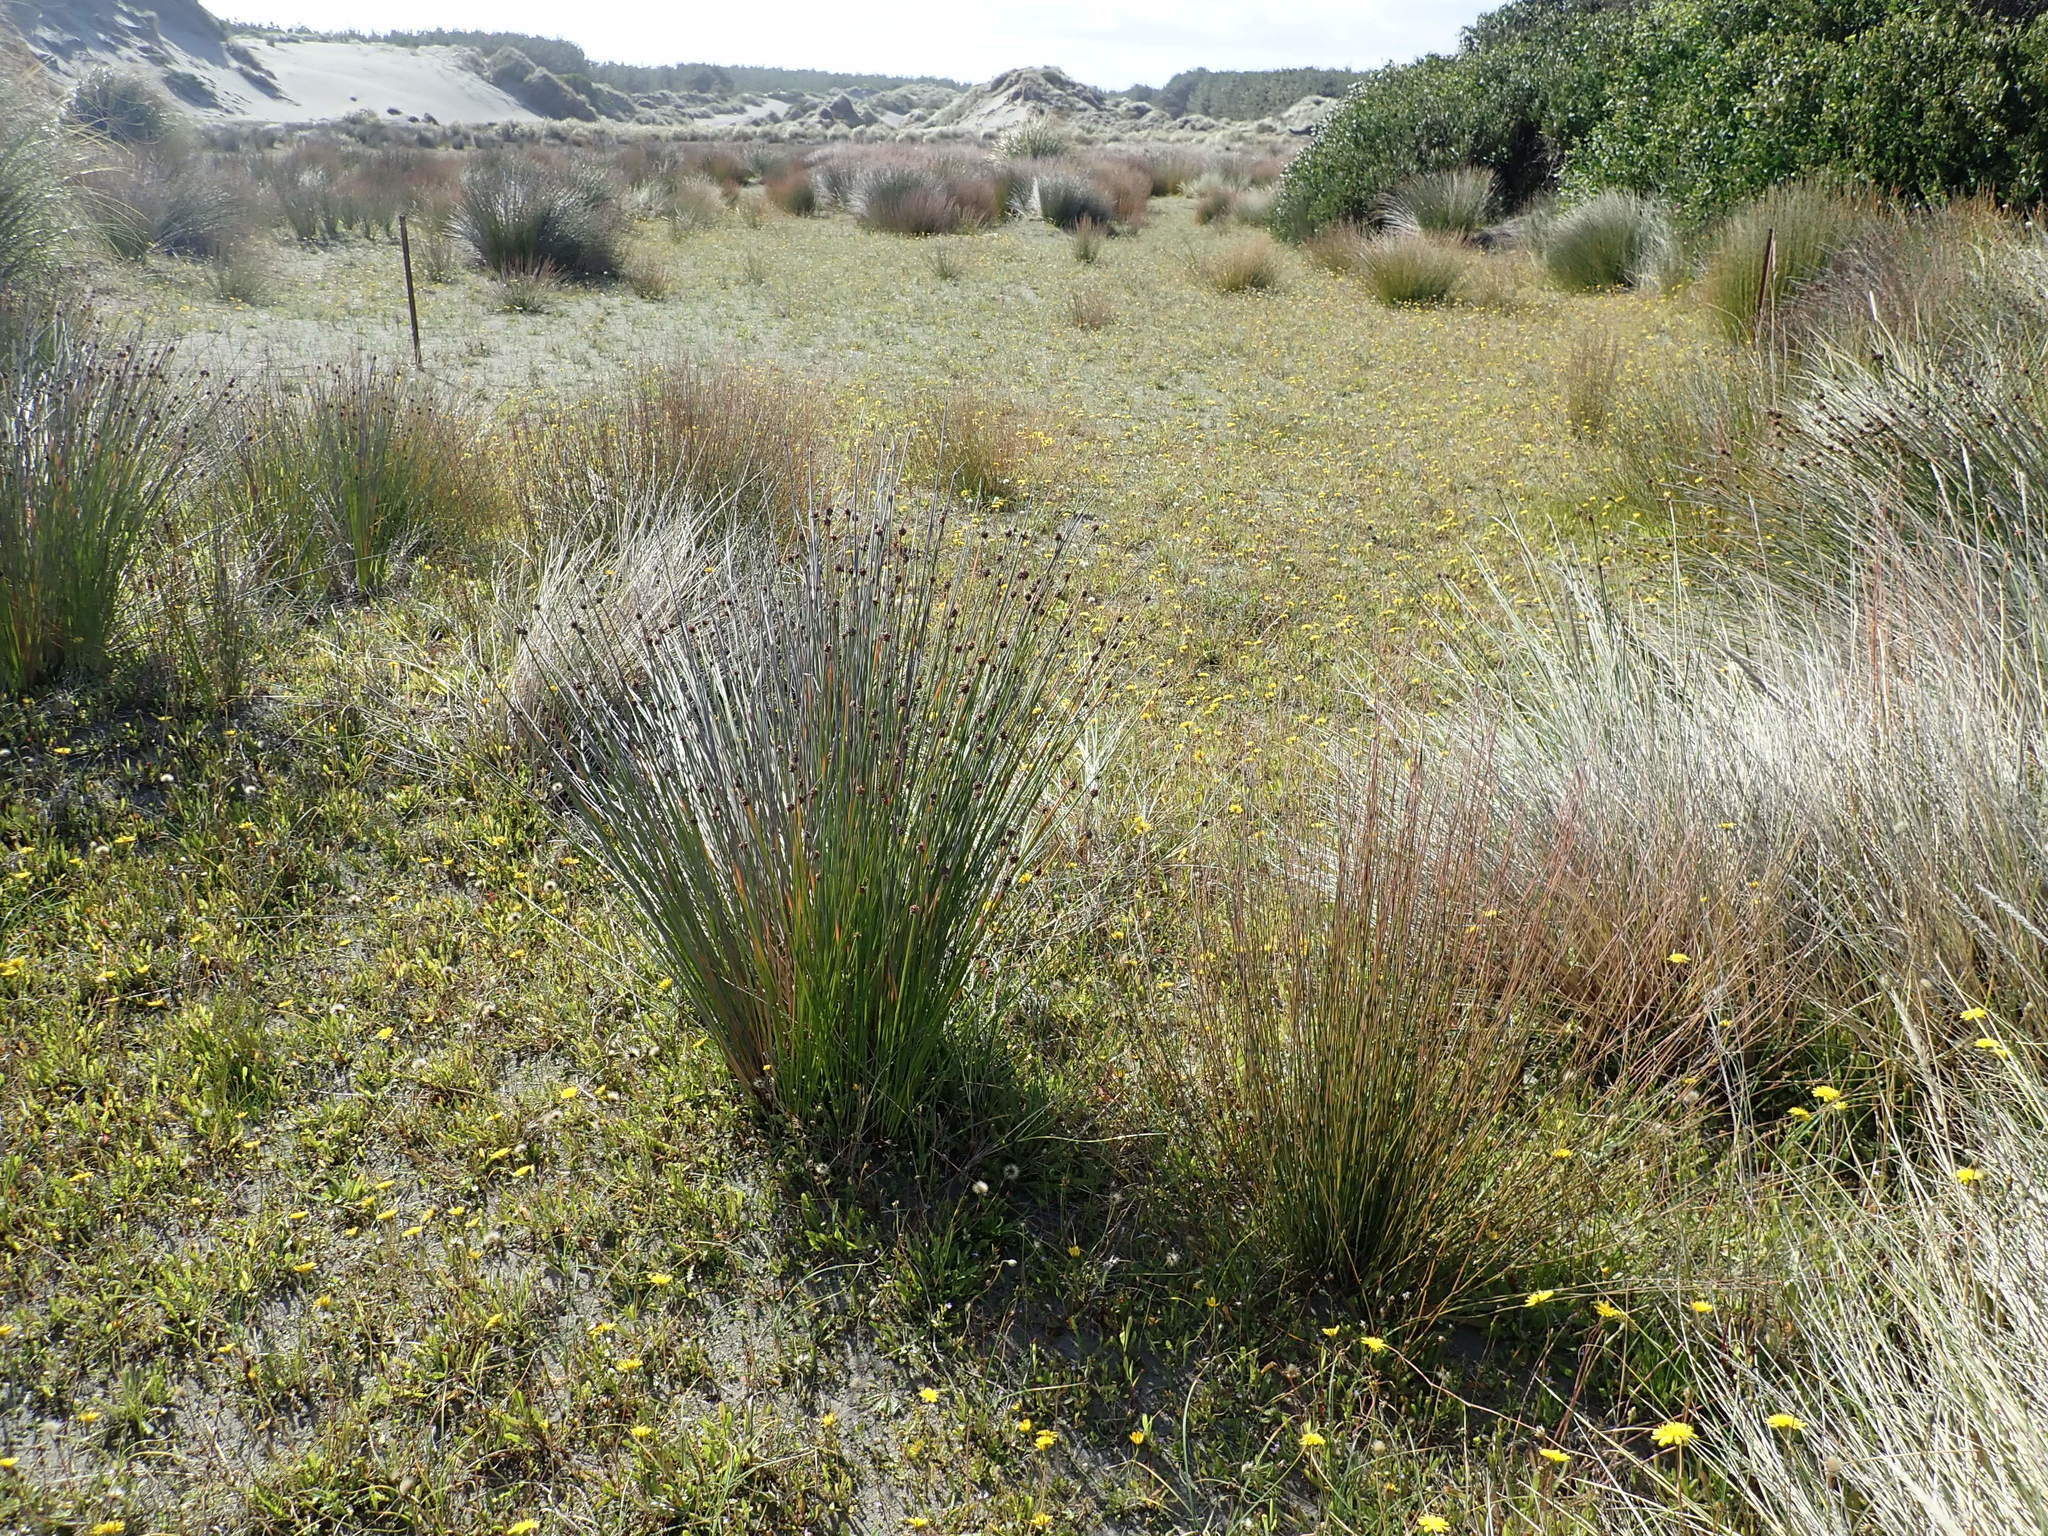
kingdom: Plantae
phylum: Tracheophyta
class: Liliopsida
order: Poales
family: Cyperaceae
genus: Ficinia
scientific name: Ficinia nodosa
